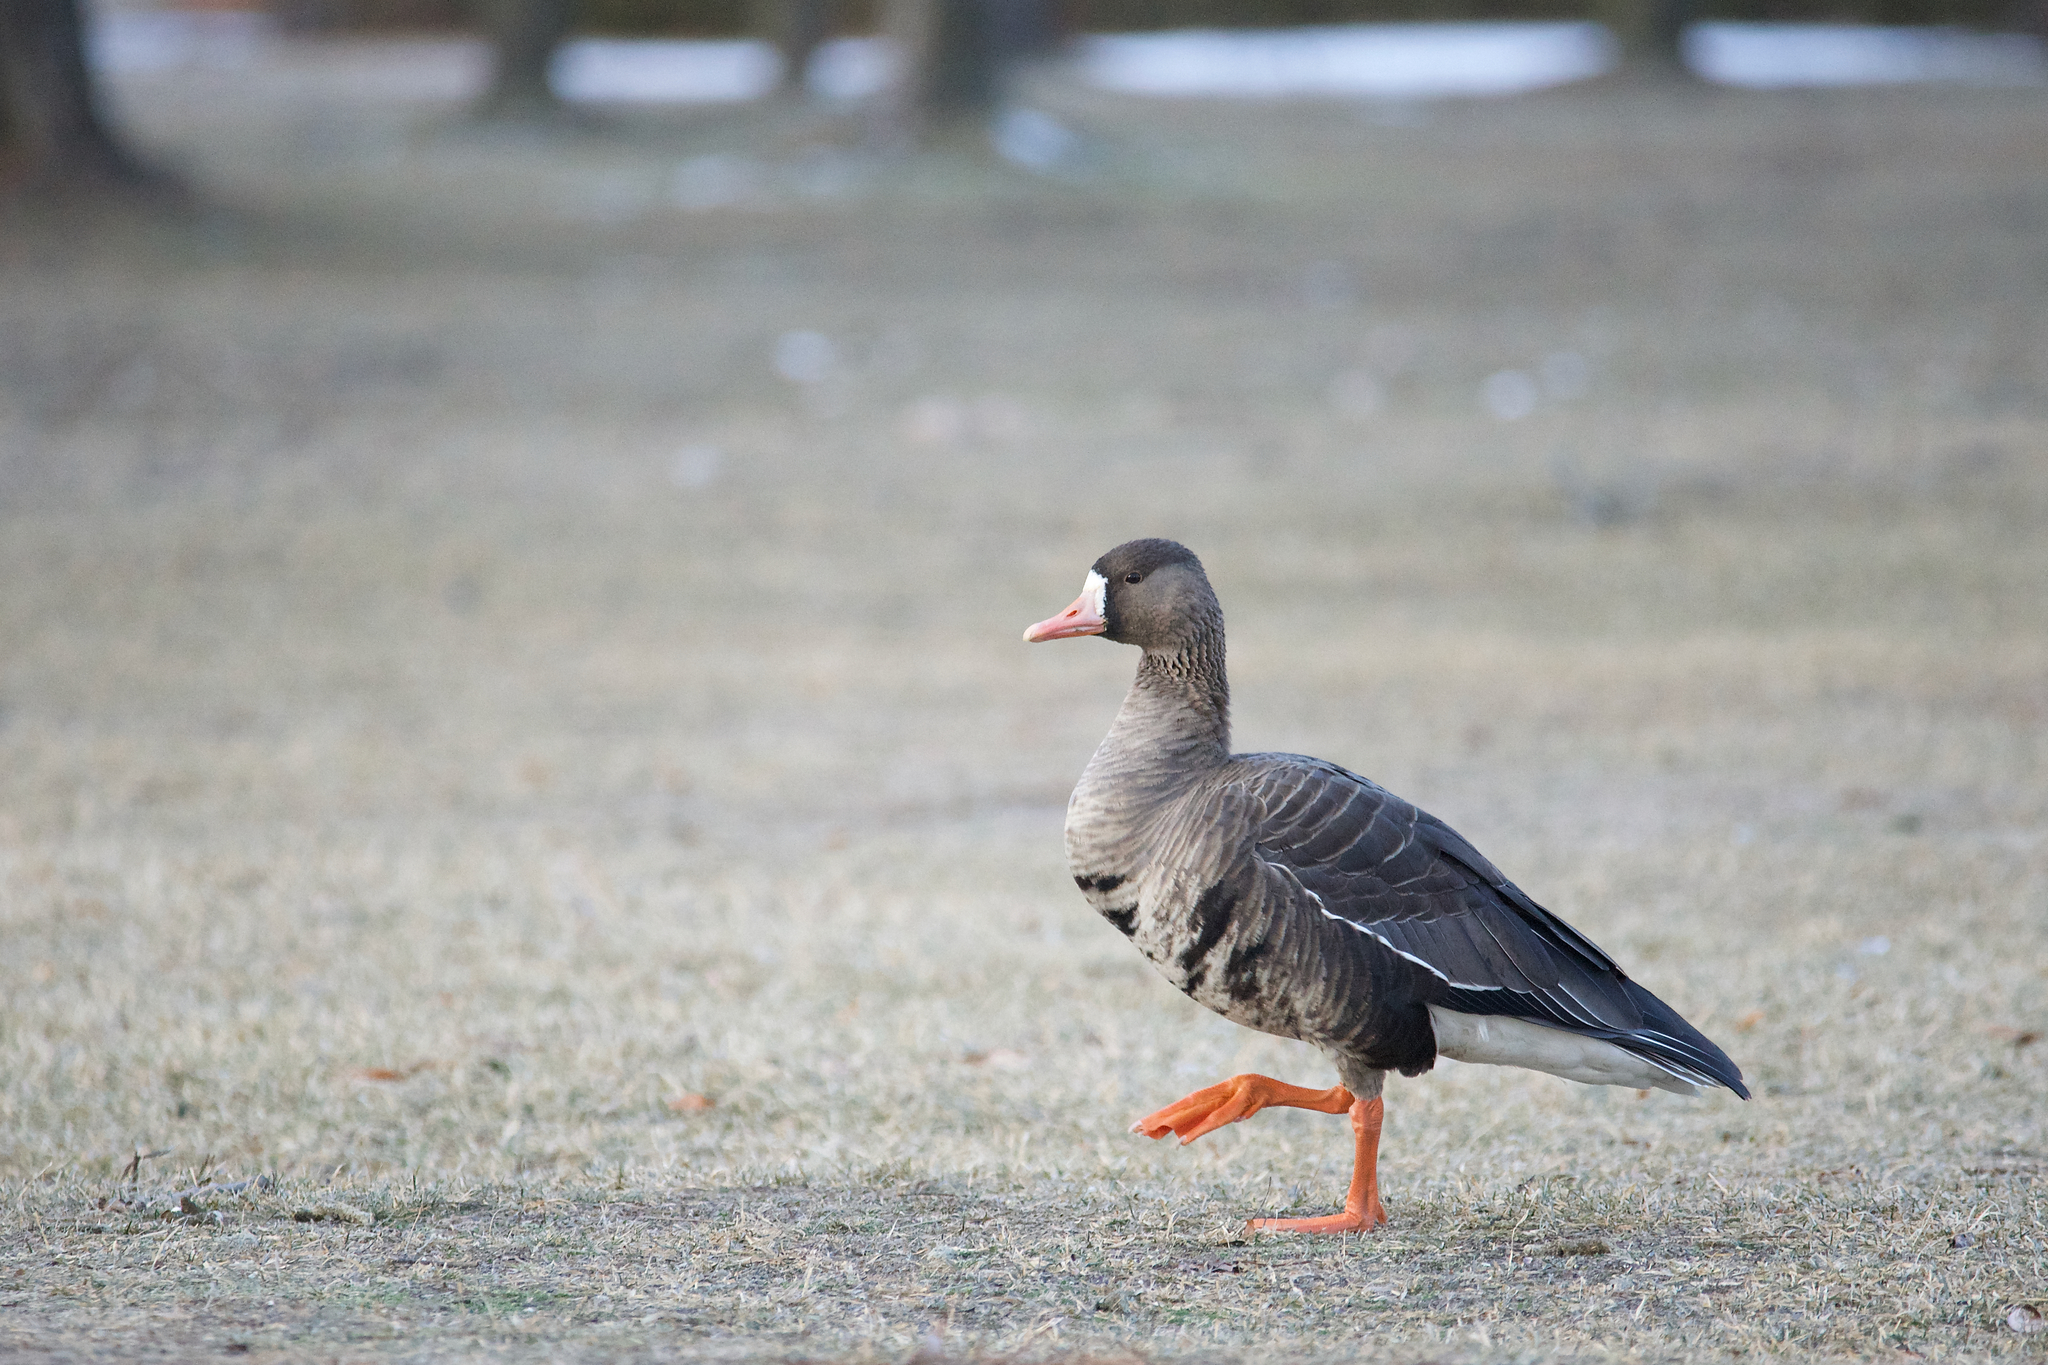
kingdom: Animalia
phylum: Chordata
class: Aves
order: Anseriformes
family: Anatidae
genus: Anser
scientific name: Anser albifrons
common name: Greater white-fronted goose
